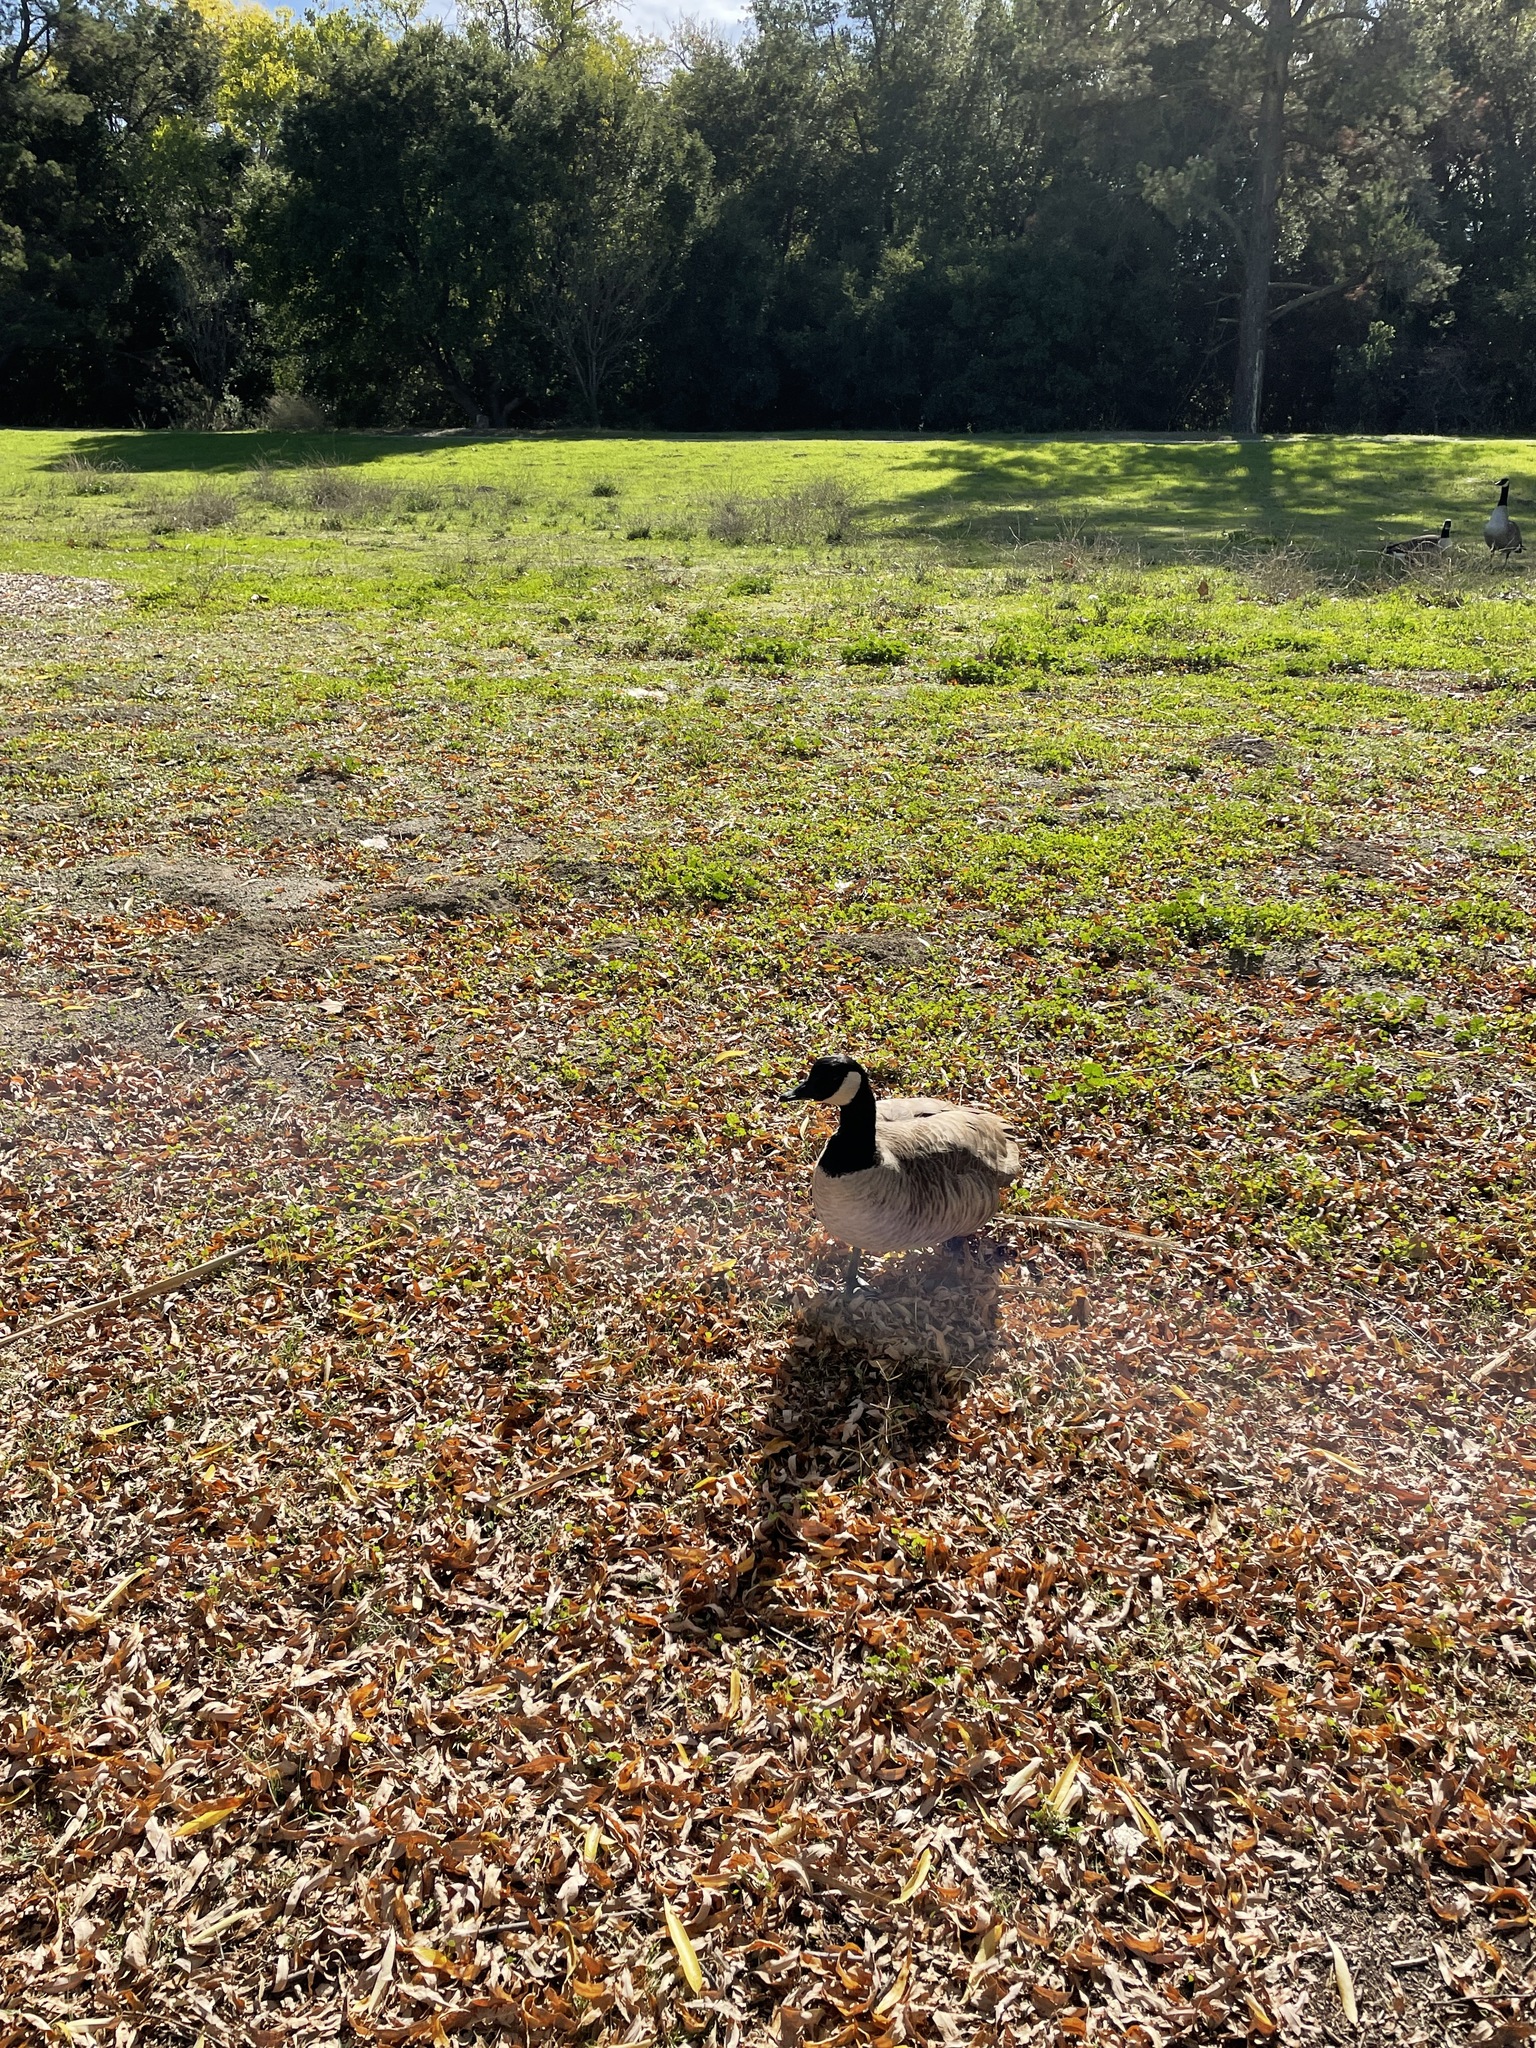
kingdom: Animalia
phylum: Chordata
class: Aves
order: Anseriformes
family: Anatidae
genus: Branta
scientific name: Branta canadensis
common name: Canada goose
